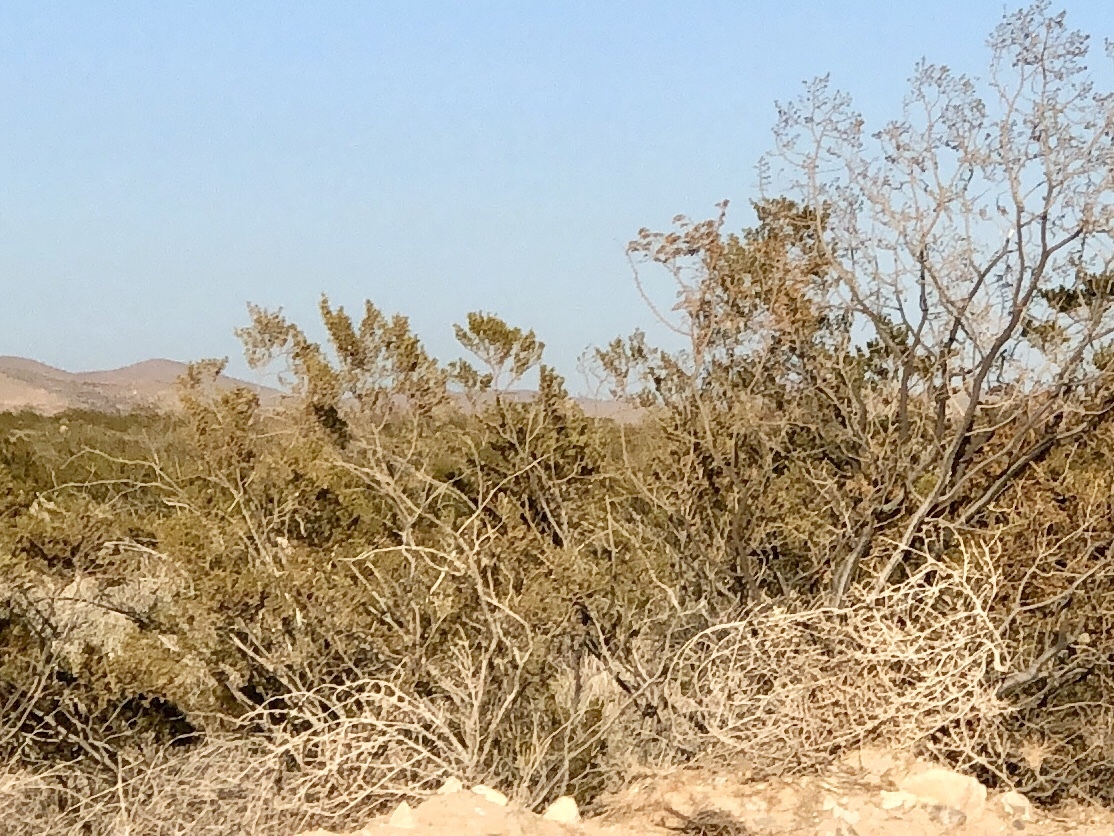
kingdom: Plantae
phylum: Tracheophyta
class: Magnoliopsida
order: Zygophyllales
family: Zygophyllaceae
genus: Larrea
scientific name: Larrea tridentata
